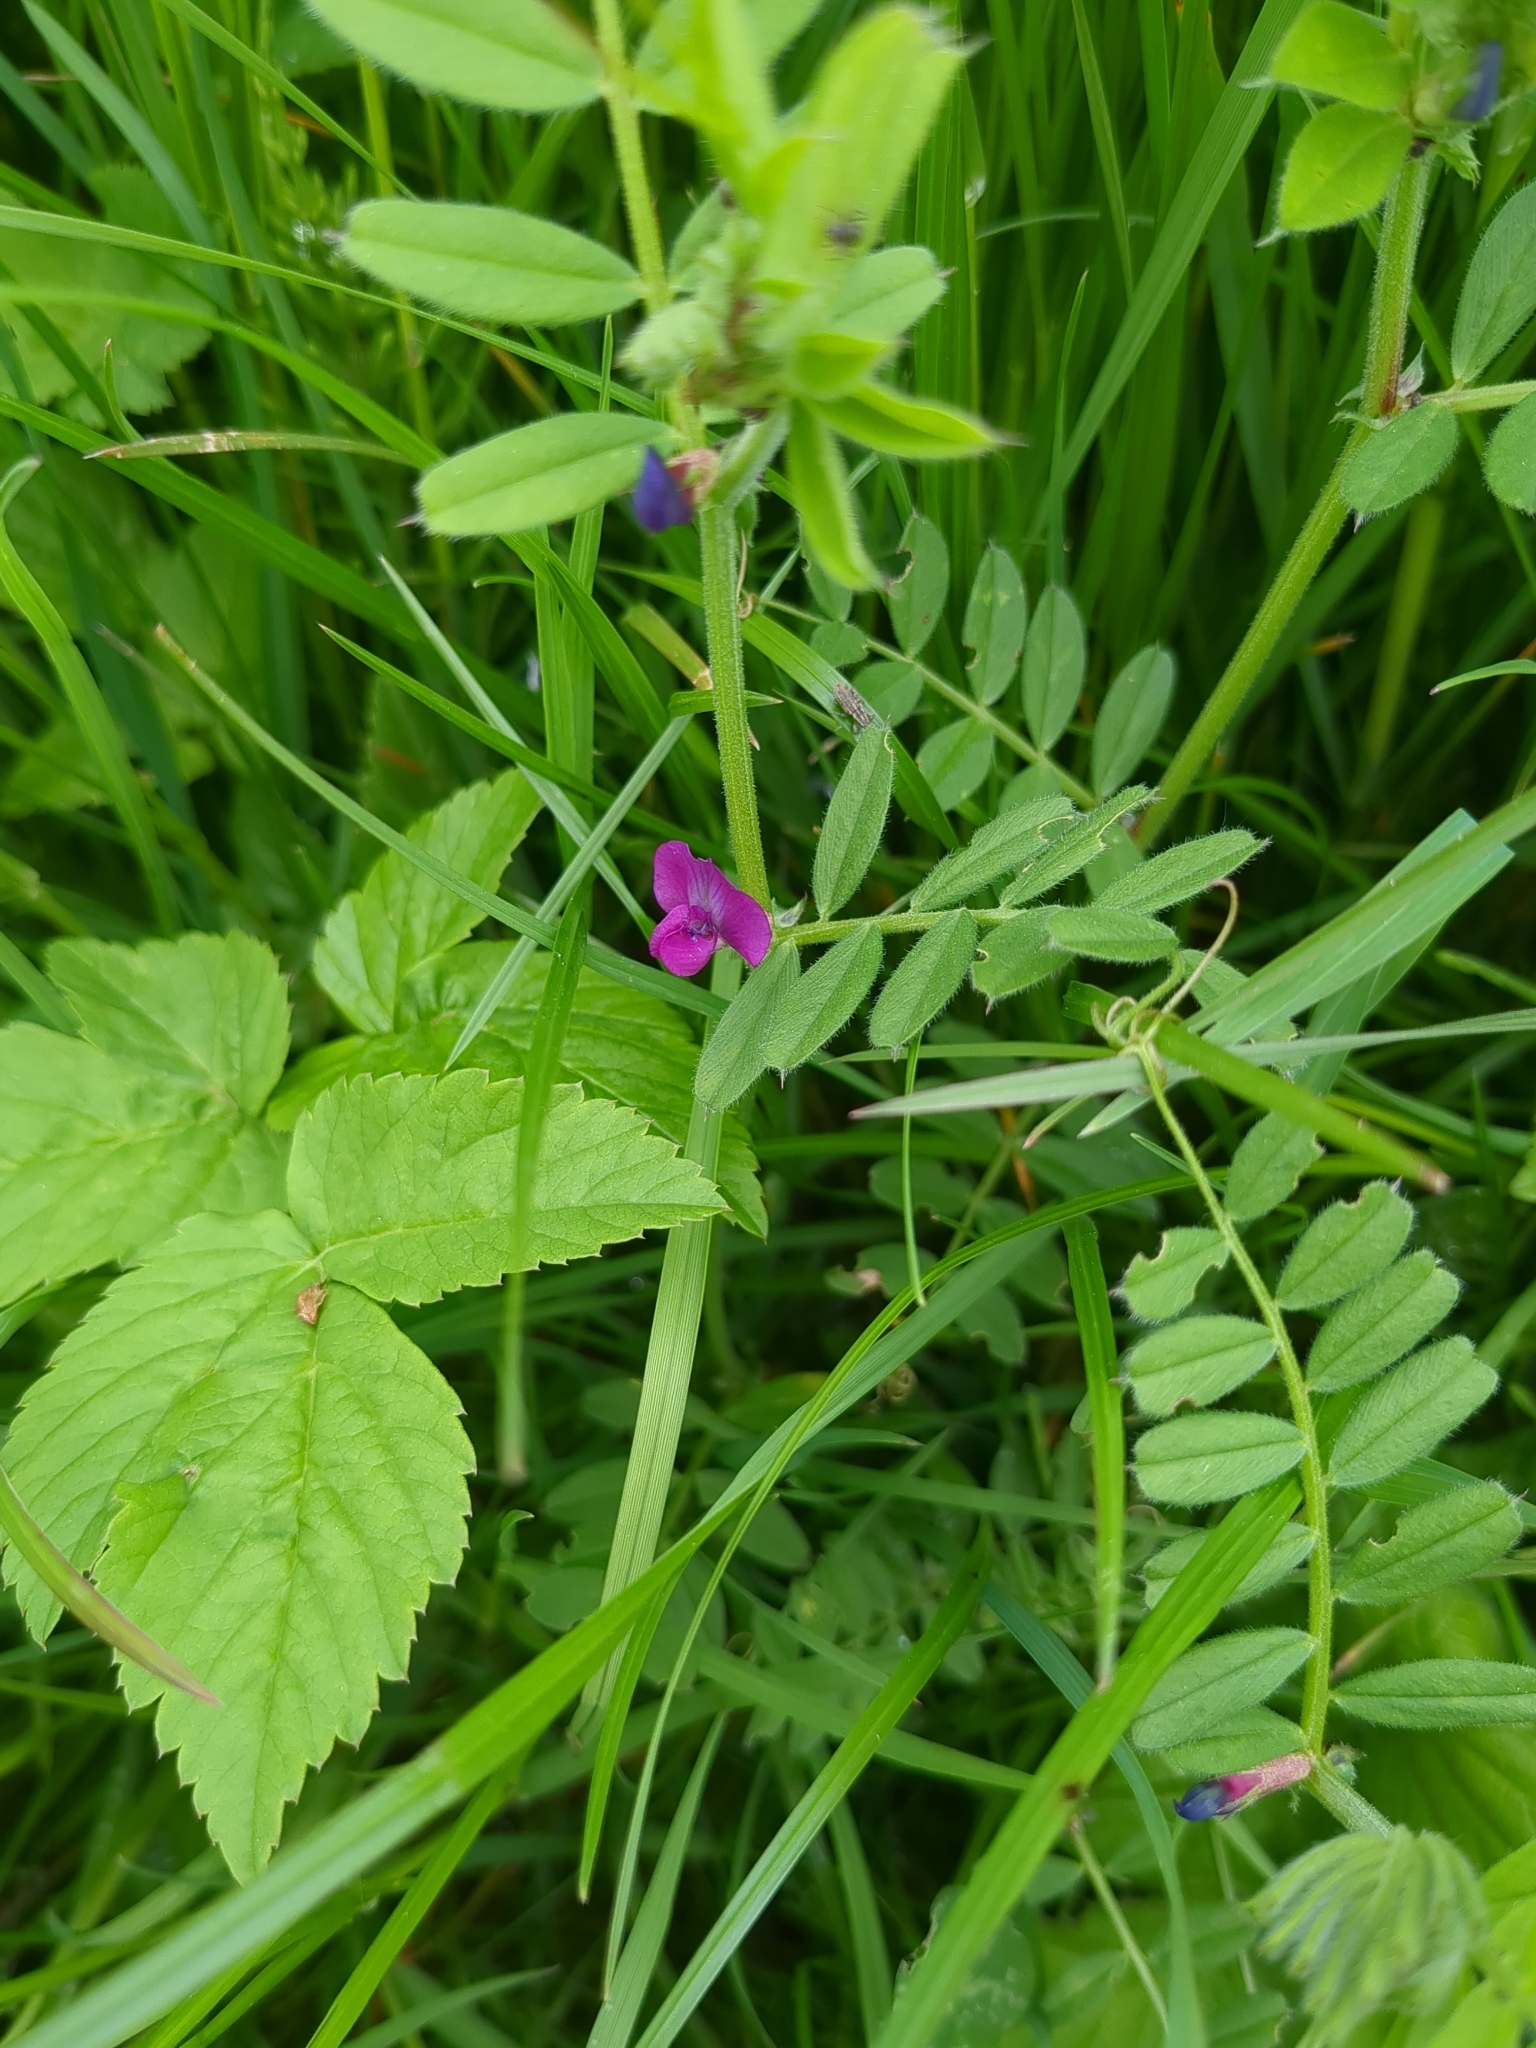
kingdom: Plantae
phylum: Tracheophyta
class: Magnoliopsida
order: Fabales
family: Fabaceae
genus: Vicia
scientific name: Vicia sativa
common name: Garden vetch
